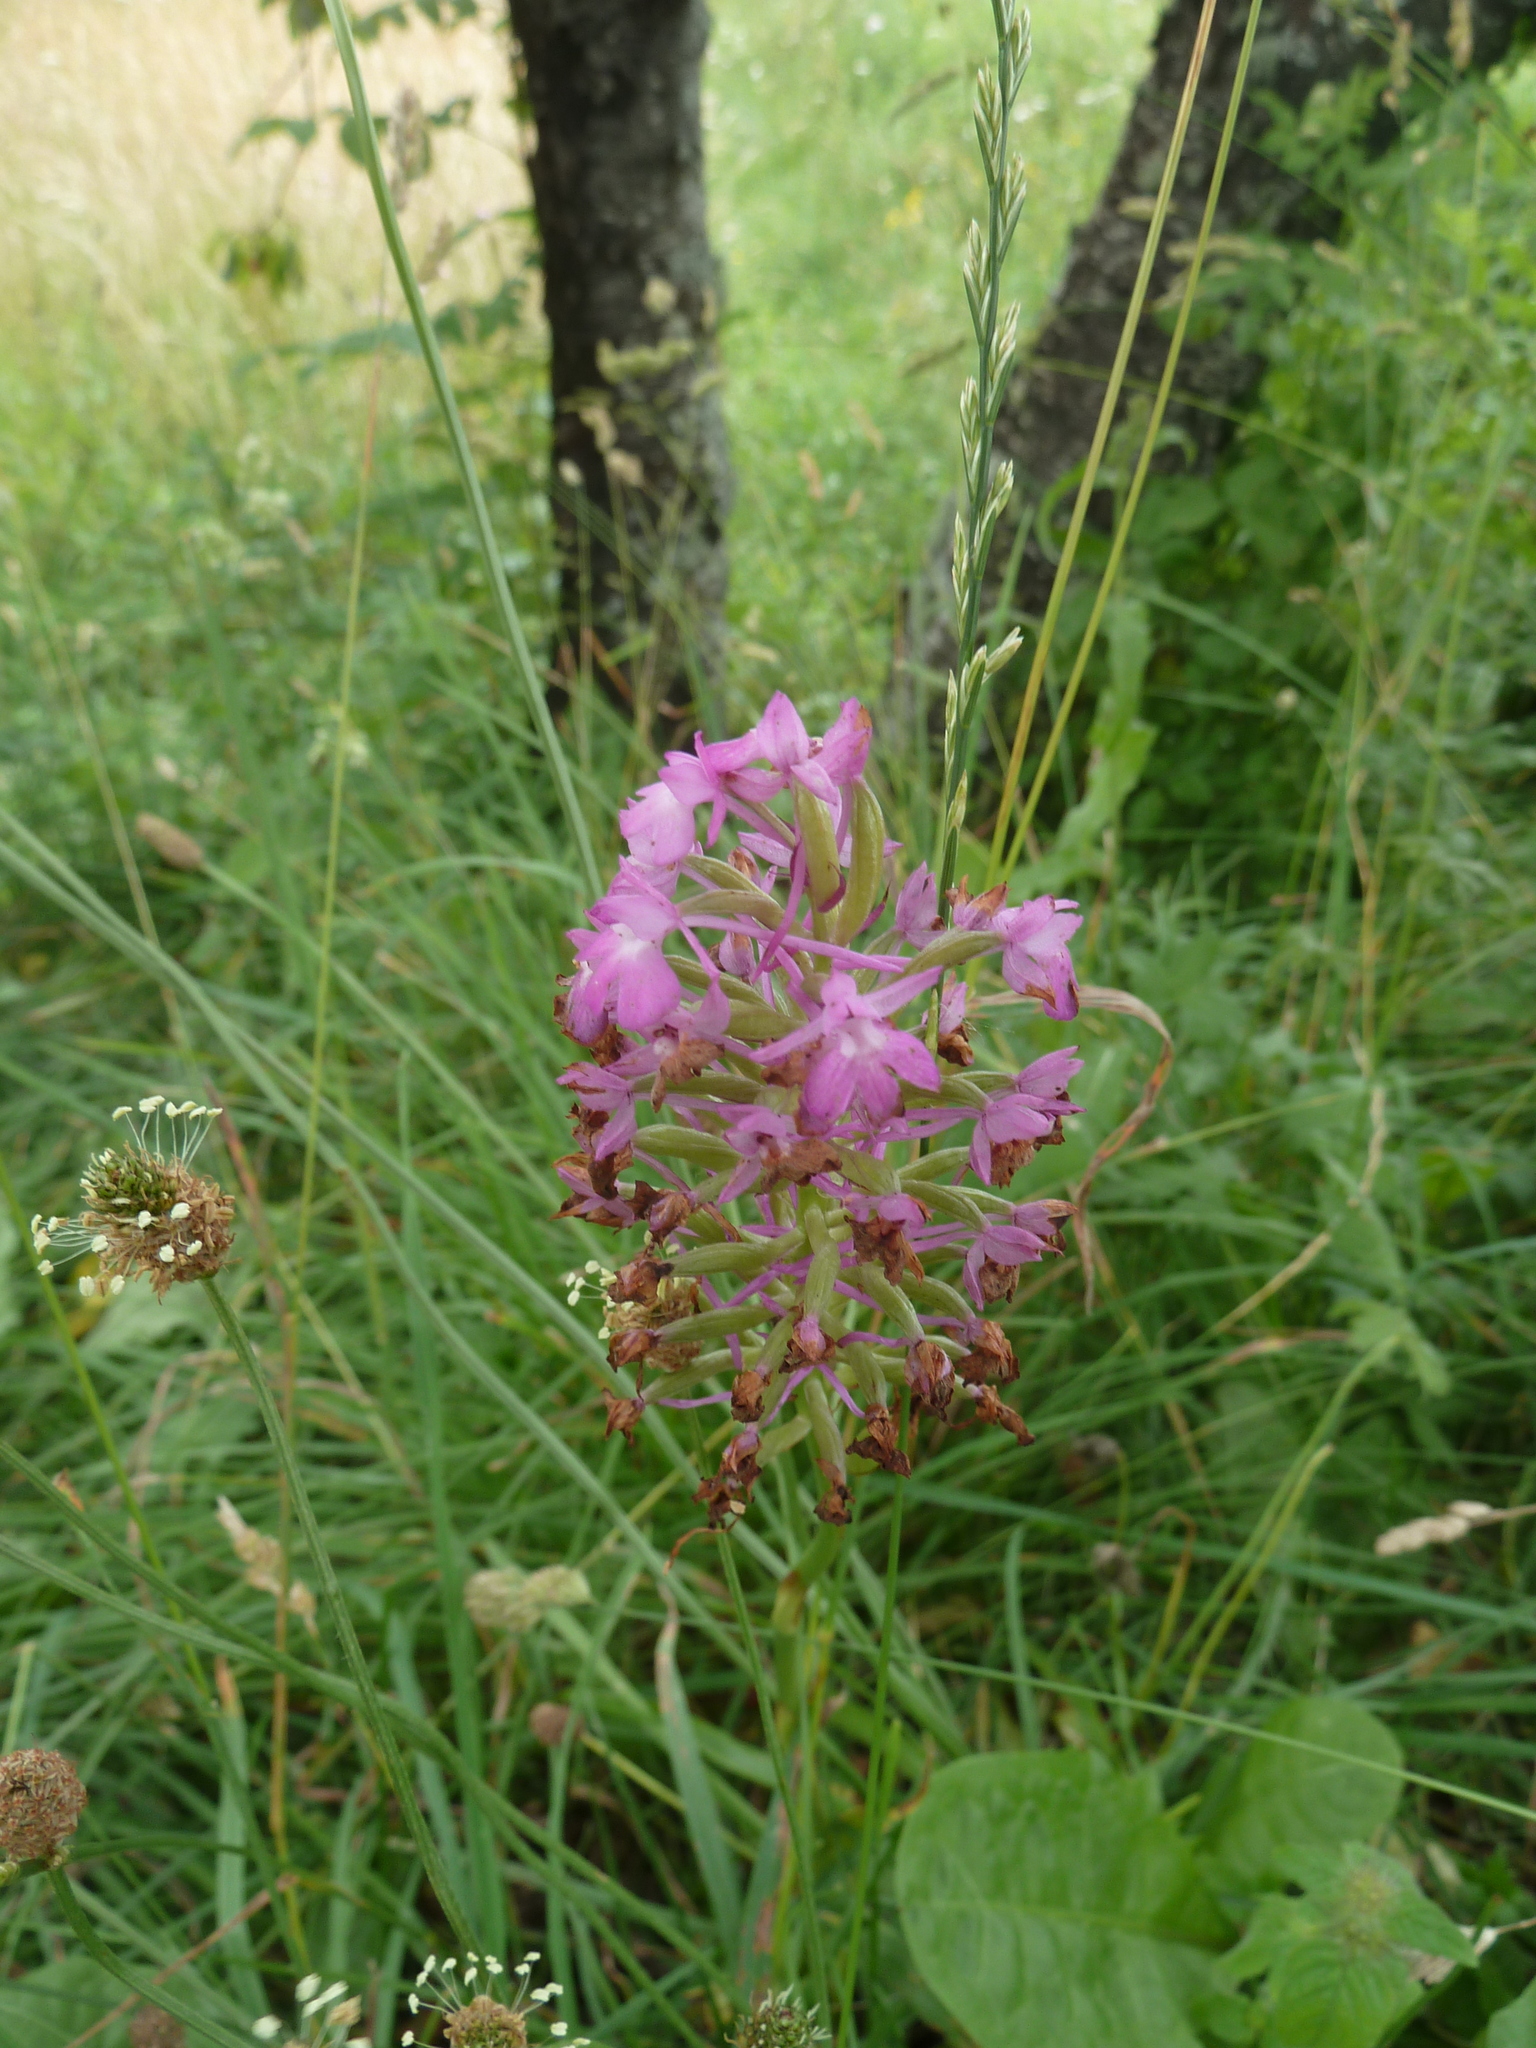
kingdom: Plantae
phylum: Tracheophyta
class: Liliopsida
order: Asparagales
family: Orchidaceae
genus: Gymnadenia
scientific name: Gymnadenia conopsea
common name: Fragrant orchid
